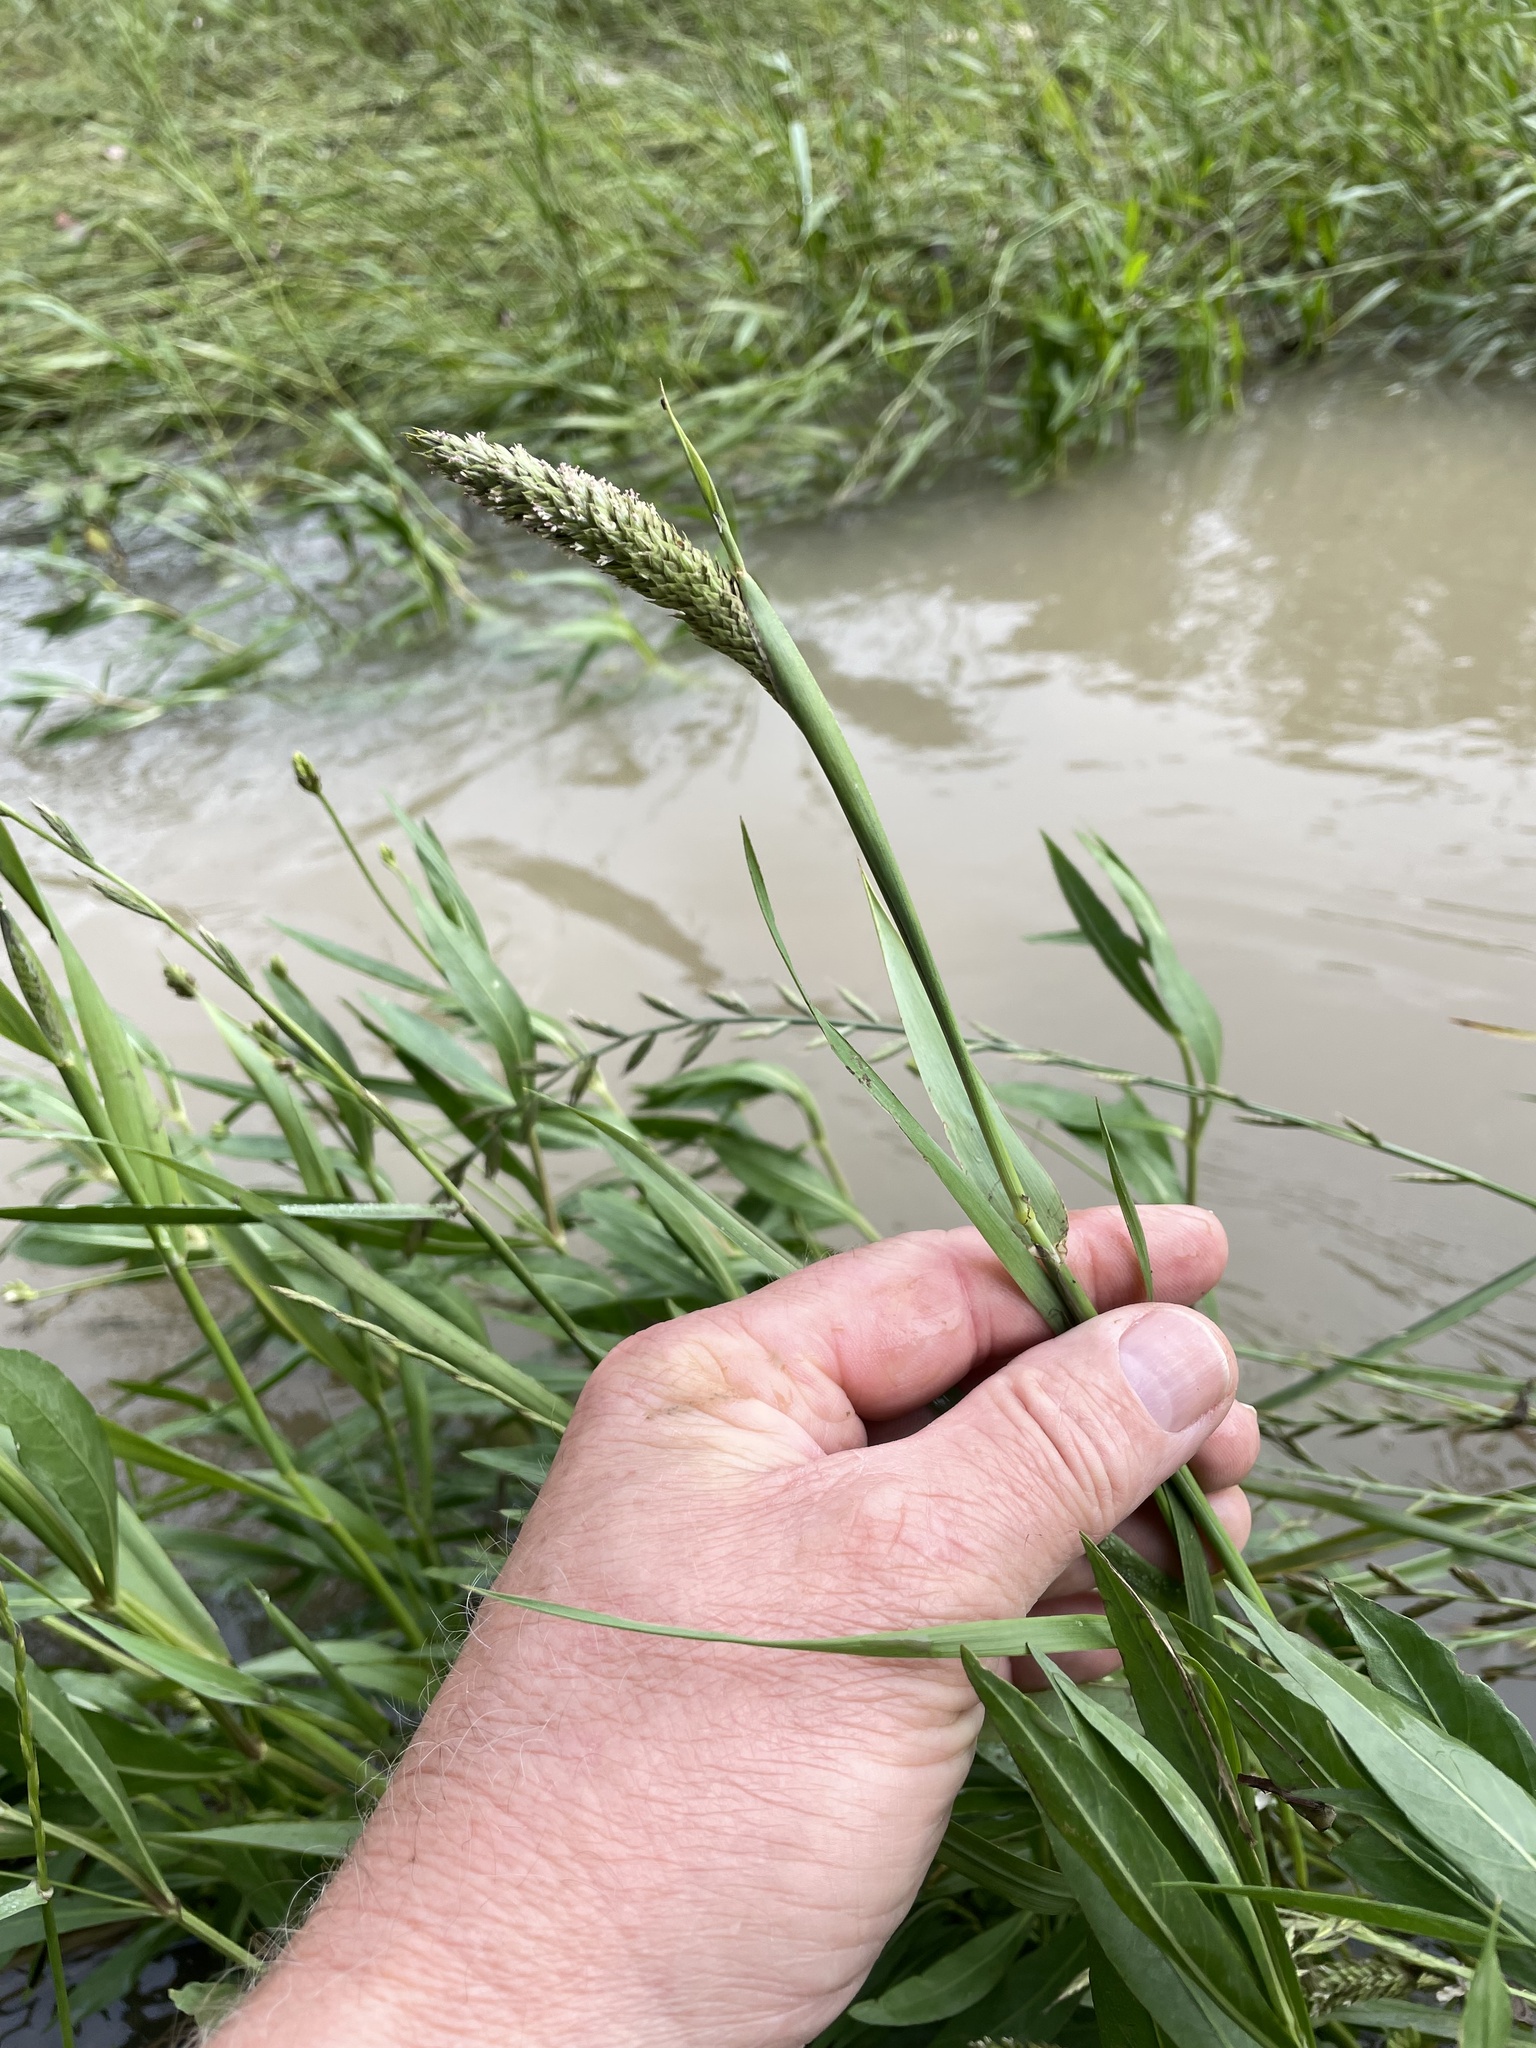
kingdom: Plantae
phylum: Tracheophyta
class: Liliopsida
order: Poales
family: Poaceae
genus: Phalaris
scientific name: Phalaris caroliniana
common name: May grass
